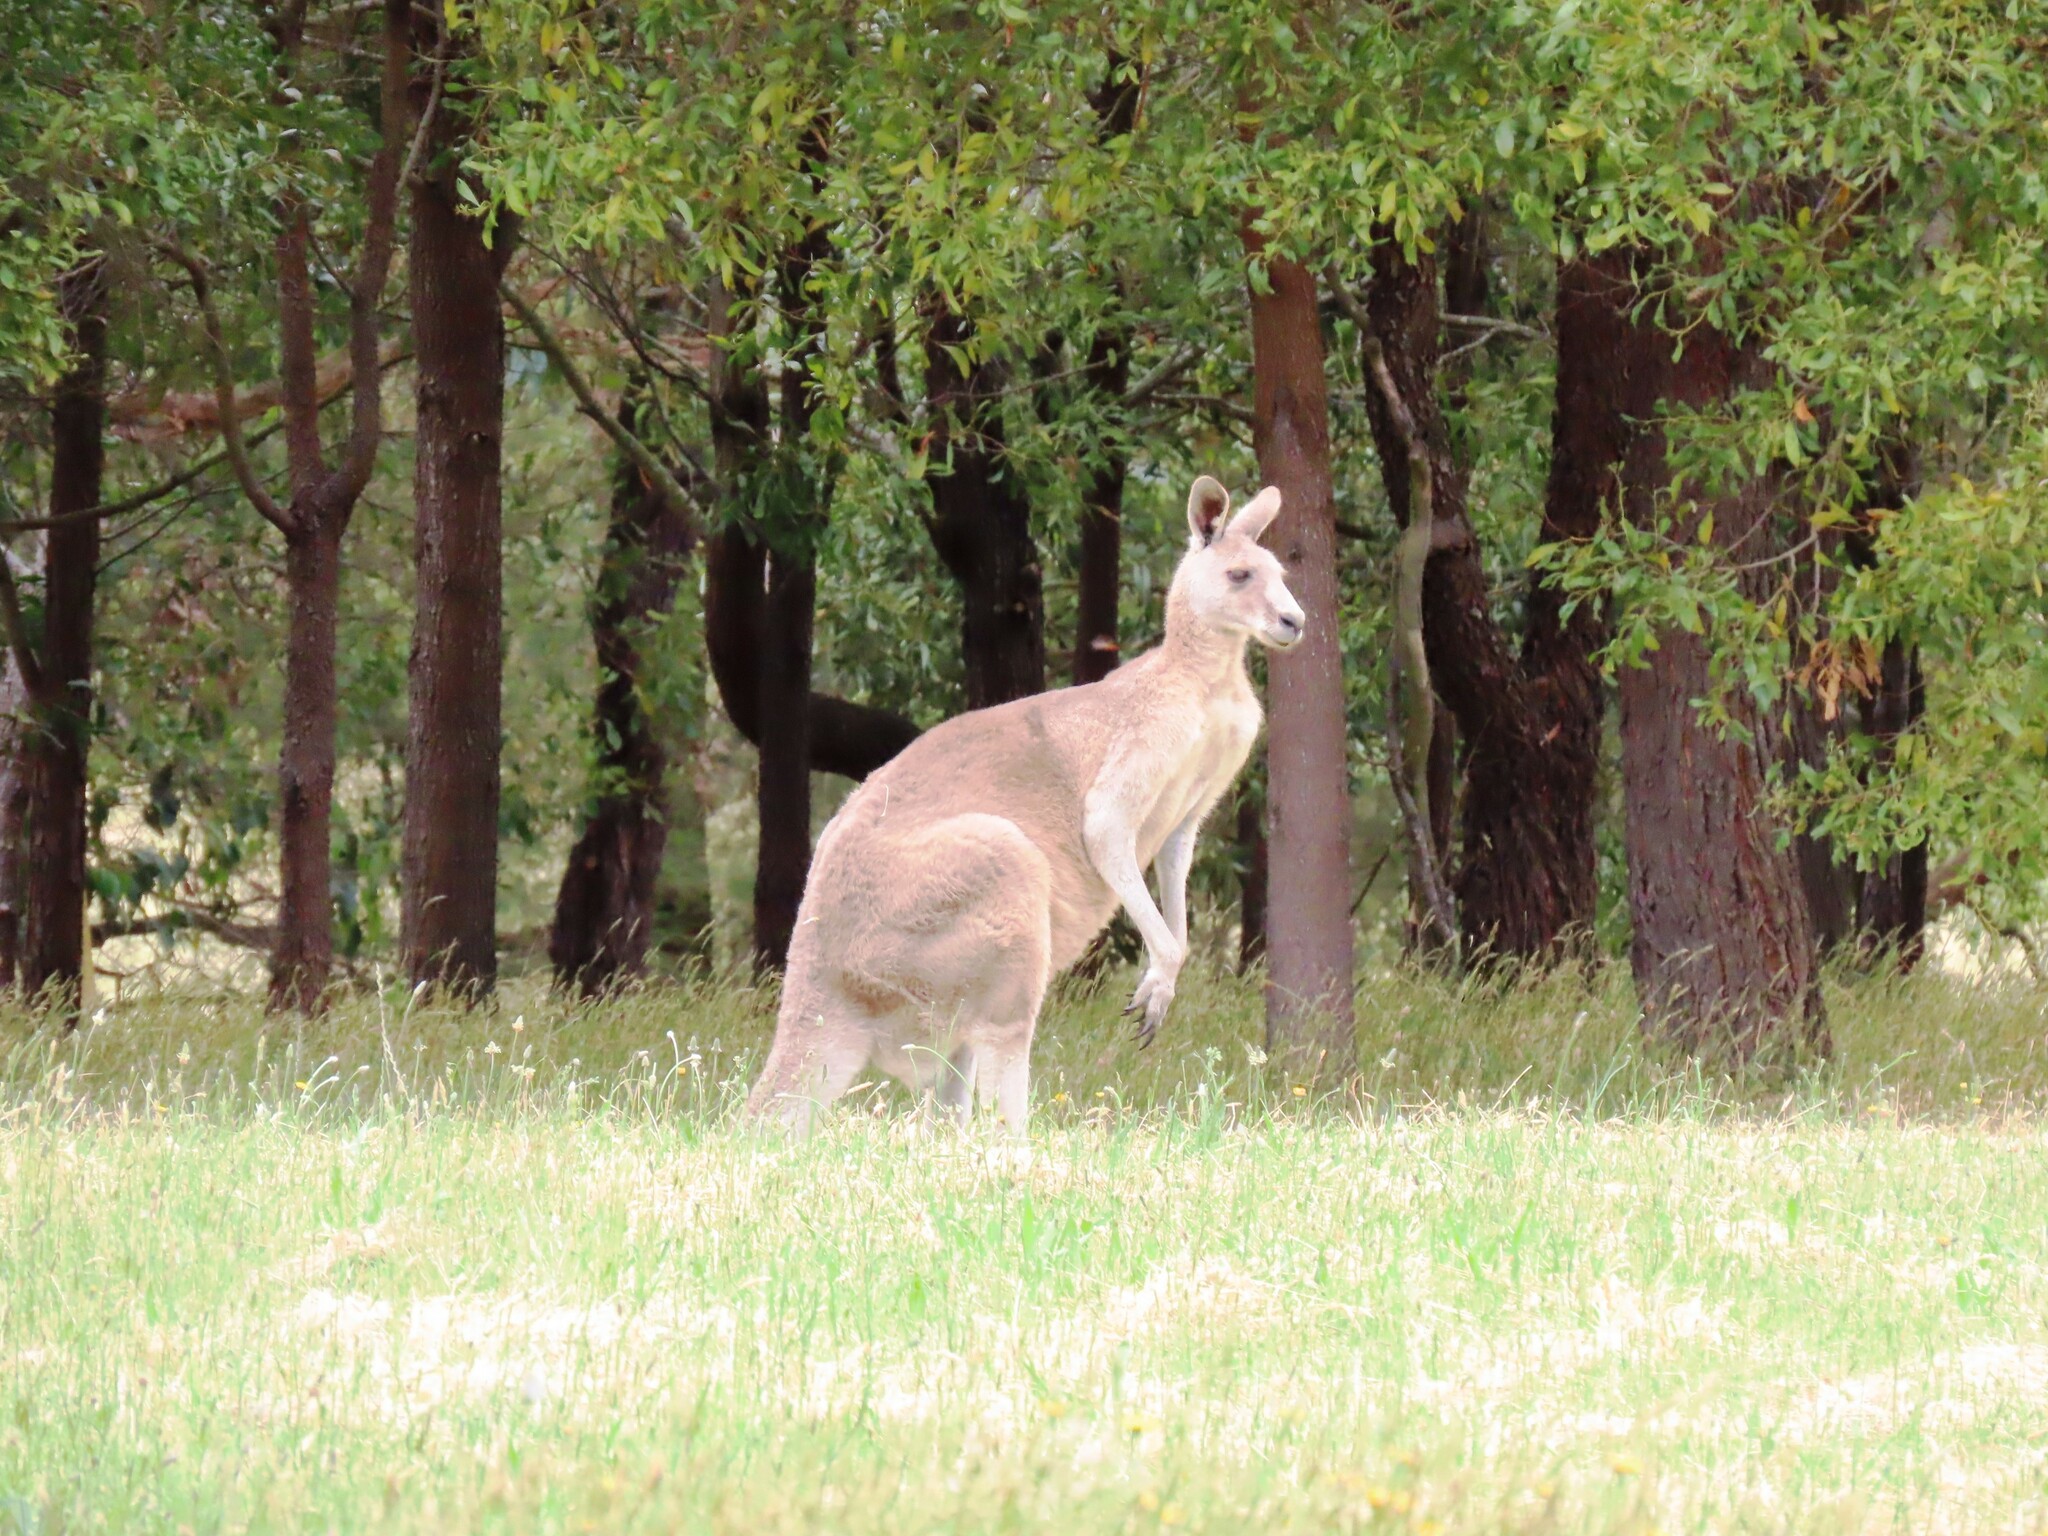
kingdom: Animalia
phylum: Chordata
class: Mammalia
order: Diprotodontia
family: Macropodidae
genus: Macropus
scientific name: Macropus giganteus
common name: Eastern grey kangaroo
